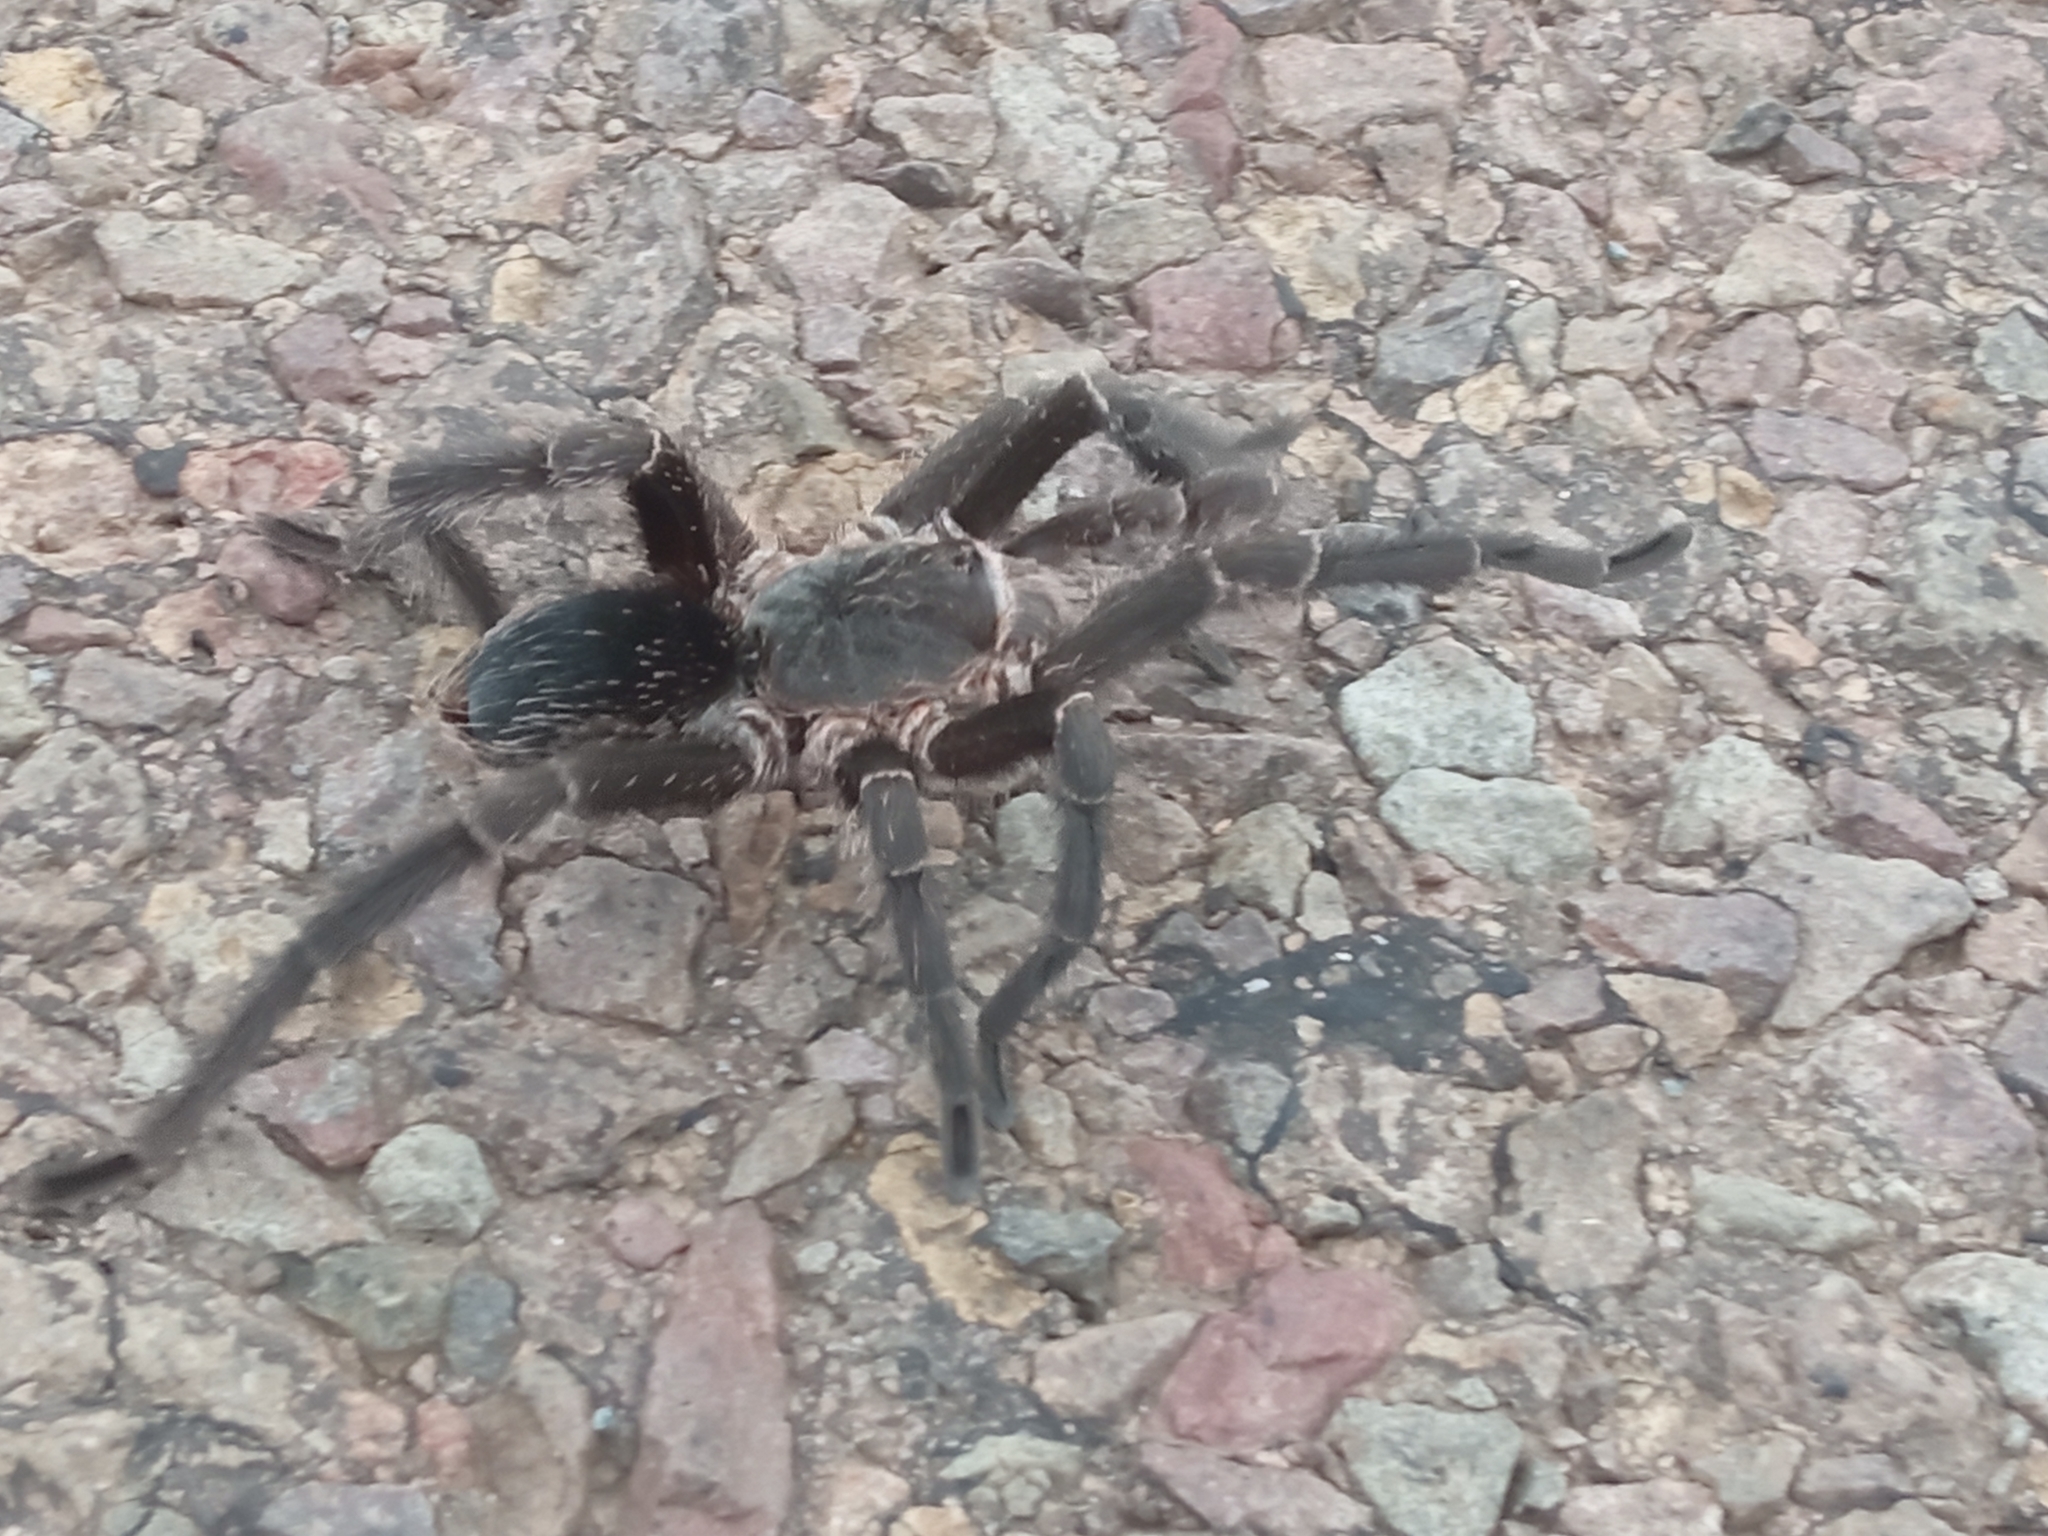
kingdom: Animalia
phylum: Arthropoda
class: Arachnida
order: Araneae
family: Theraphosidae
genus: Eupalaestrus
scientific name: Eupalaestrus weijenberghi
